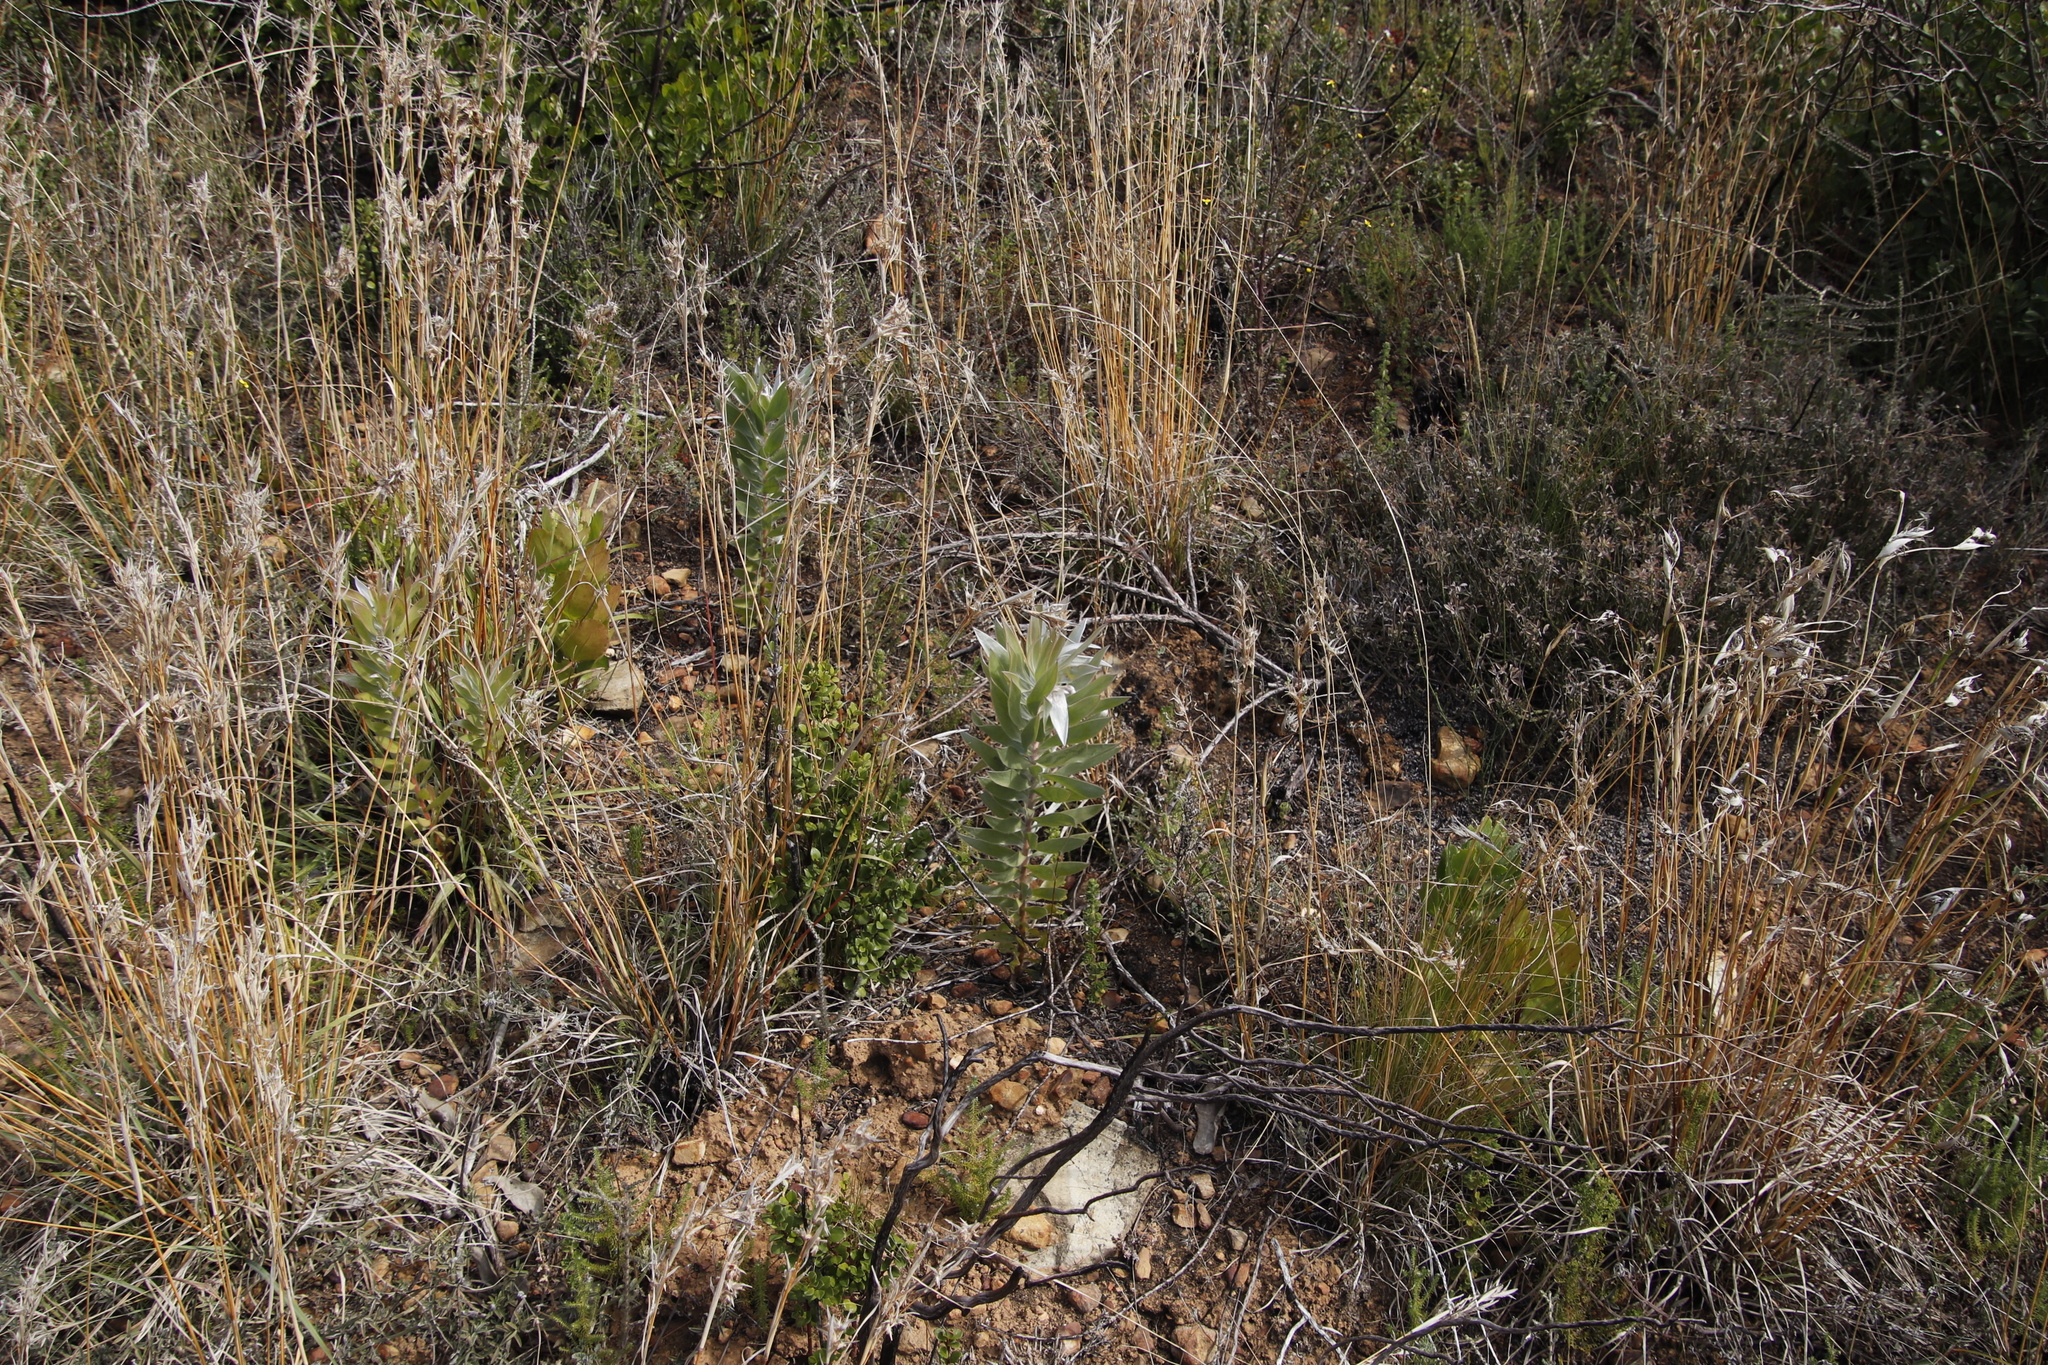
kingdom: Plantae
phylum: Tracheophyta
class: Magnoliopsida
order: Proteales
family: Proteaceae
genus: Leucadendron
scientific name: Leucadendron argenteum
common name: Cape silver tree
